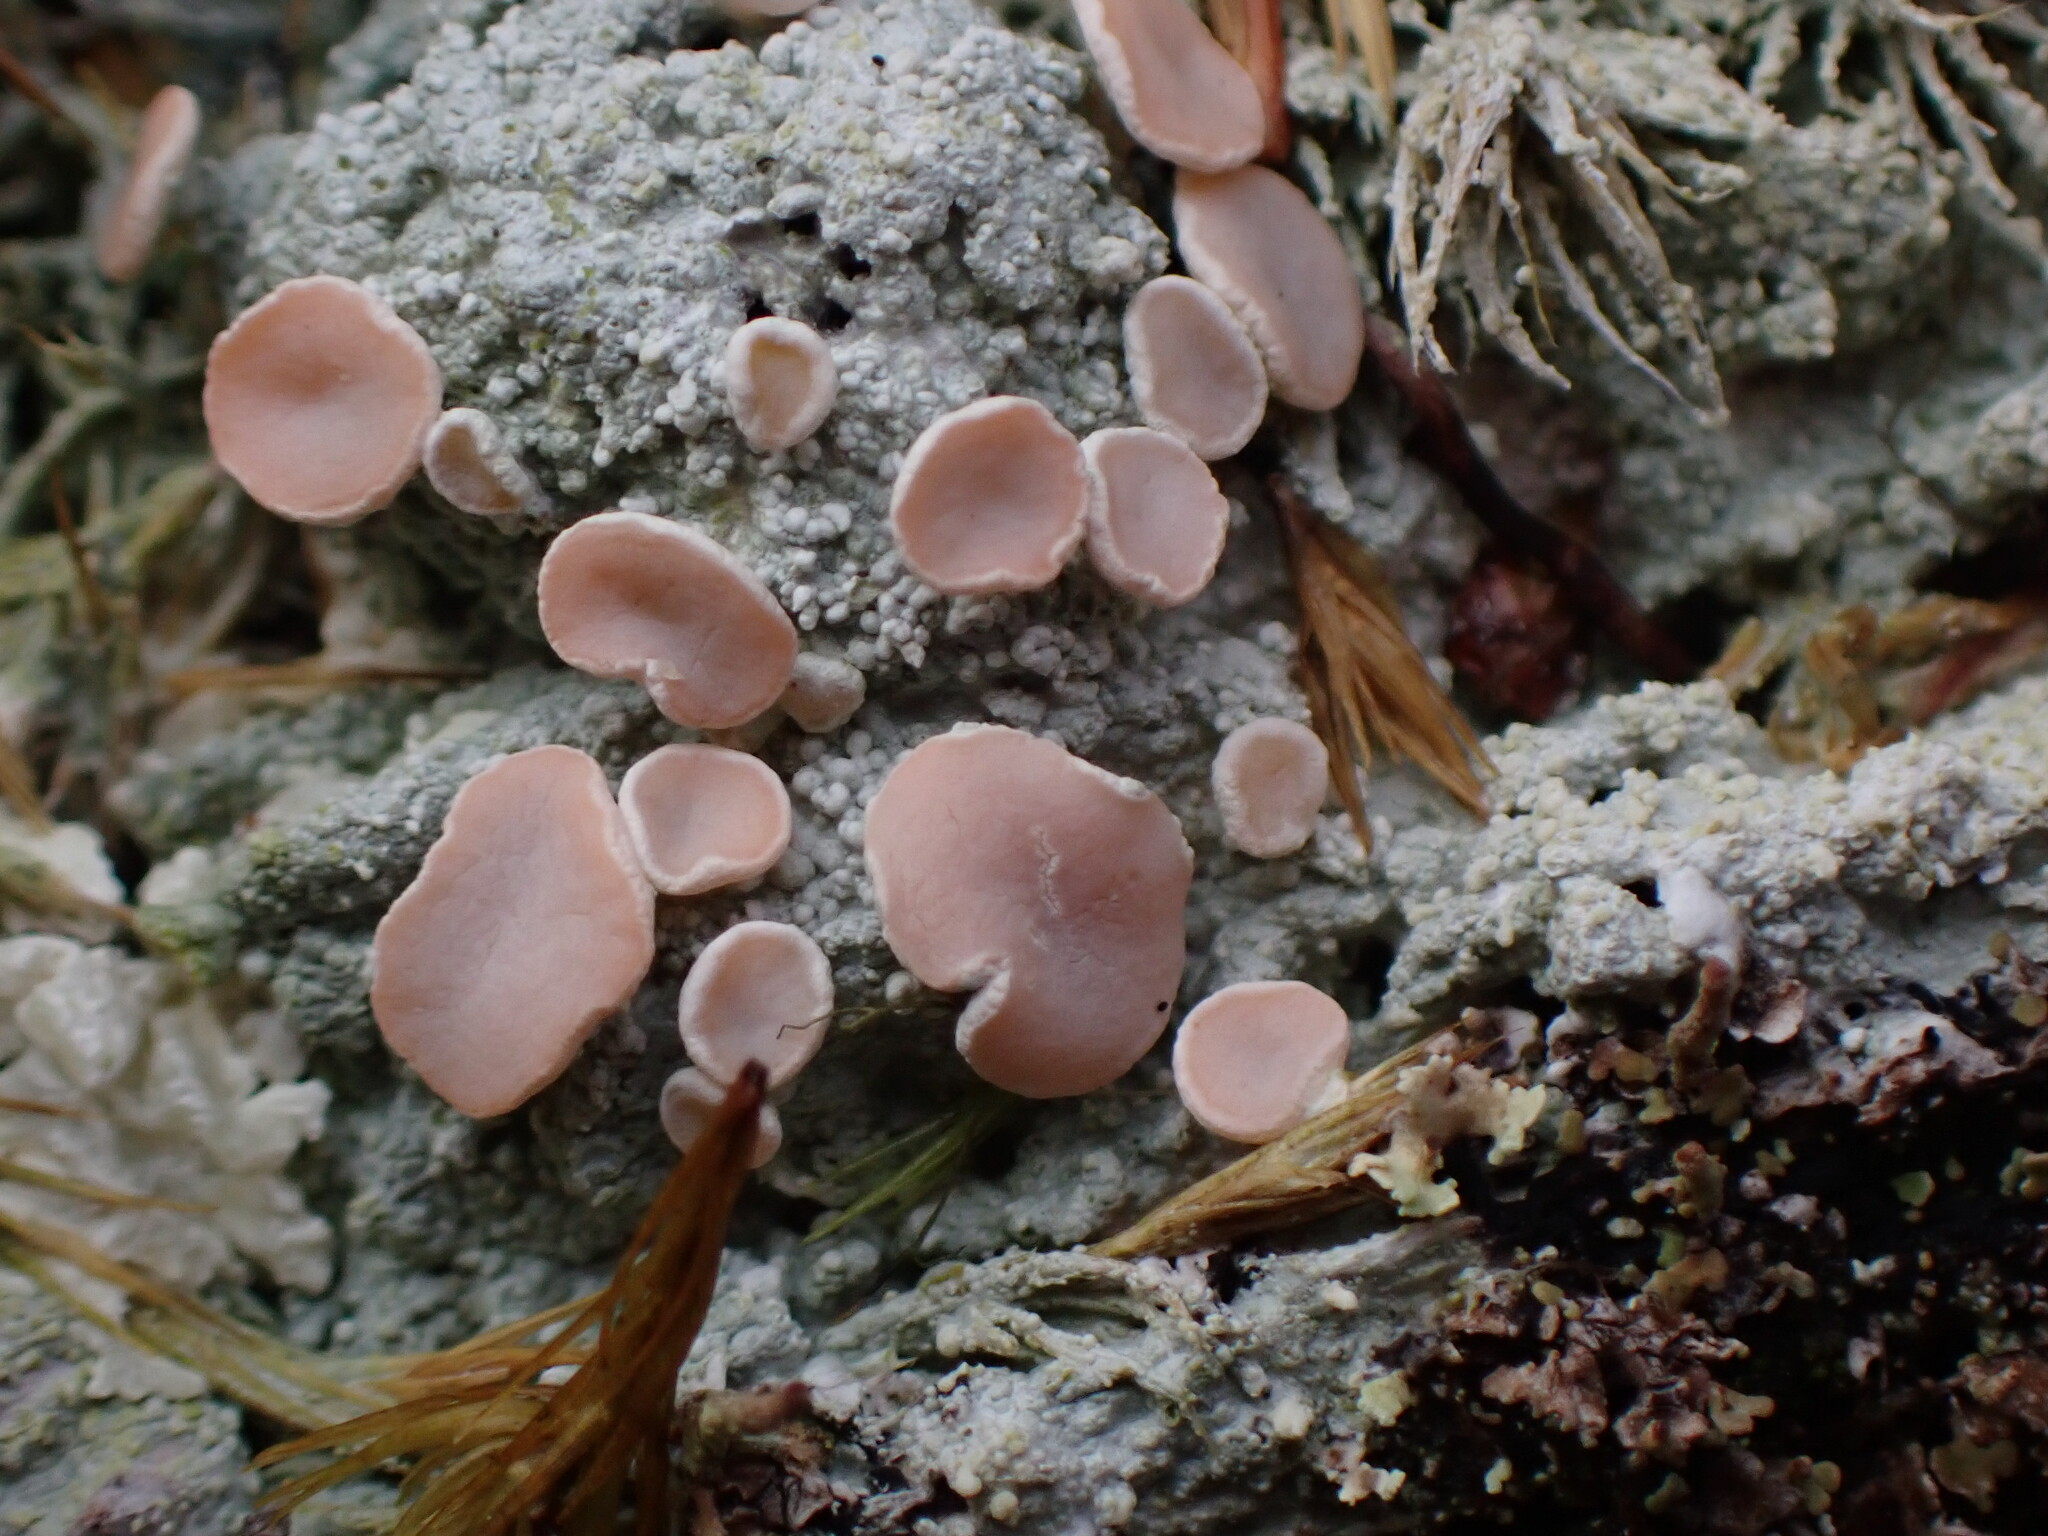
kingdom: Fungi
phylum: Ascomycota
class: Lecanoromycetes
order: Pertusariales
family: Icmadophilaceae
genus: Icmadophila
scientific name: Icmadophila ericetorum
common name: Candy lichen
